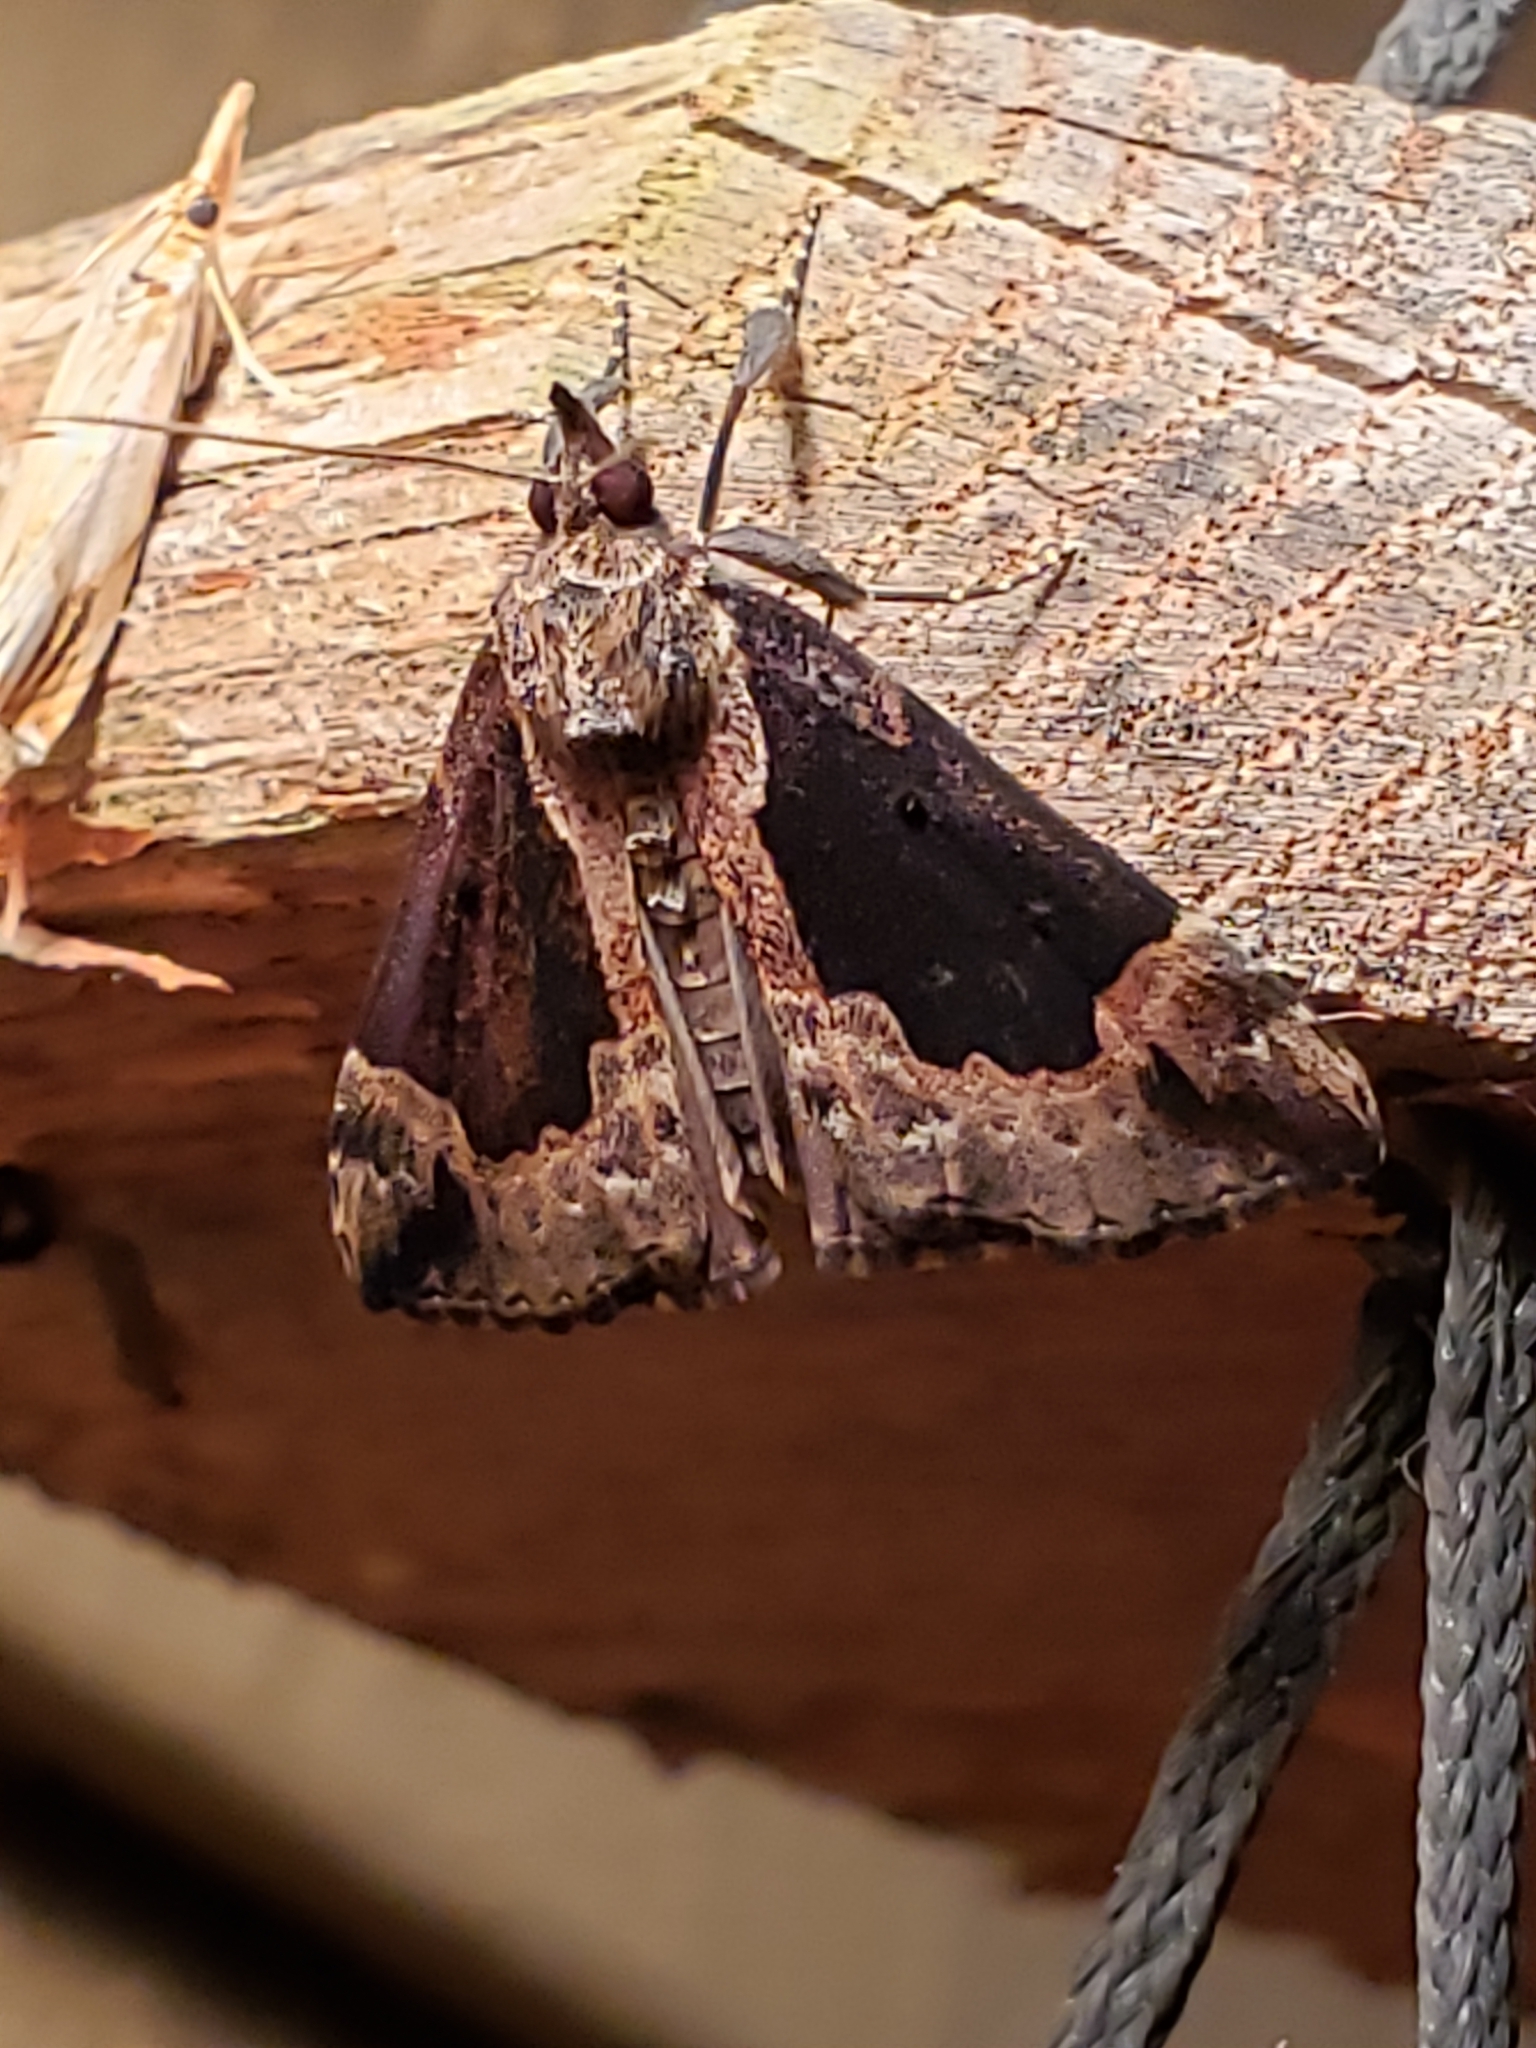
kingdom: Animalia
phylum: Arthropoda
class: Insecta
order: Lepidoptera
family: Erebidae
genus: Hypena
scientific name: Hypena baltimoralis
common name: Baltimore snout
